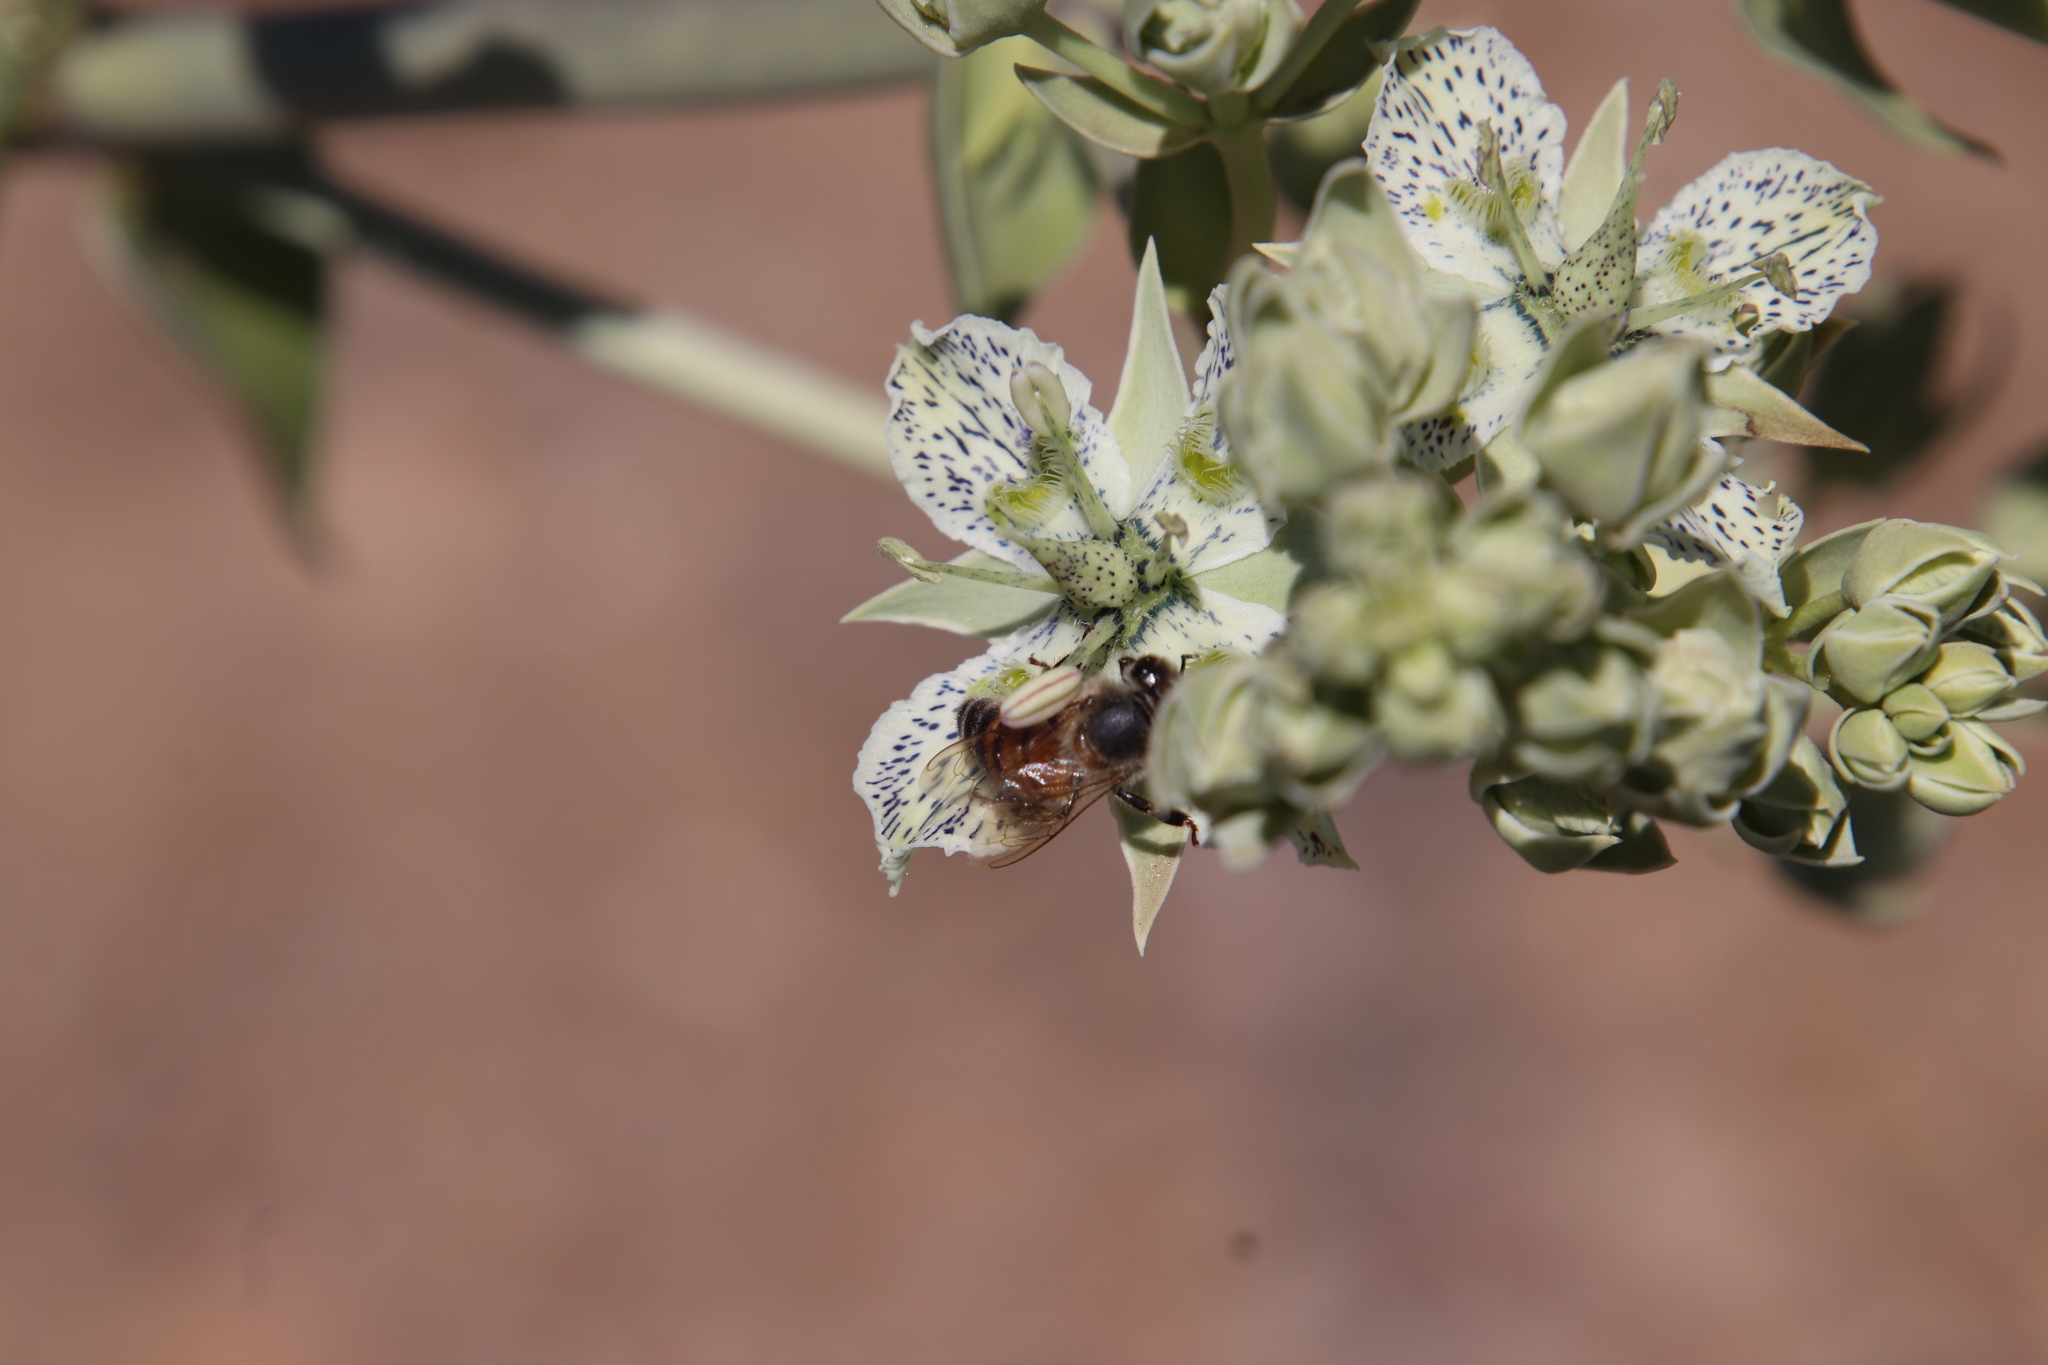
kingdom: Animalia
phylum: Arthropoda
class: Insecta
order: Hymenoptera
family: Apidae
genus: Apis
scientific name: Apis mellifera
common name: Honey bee
